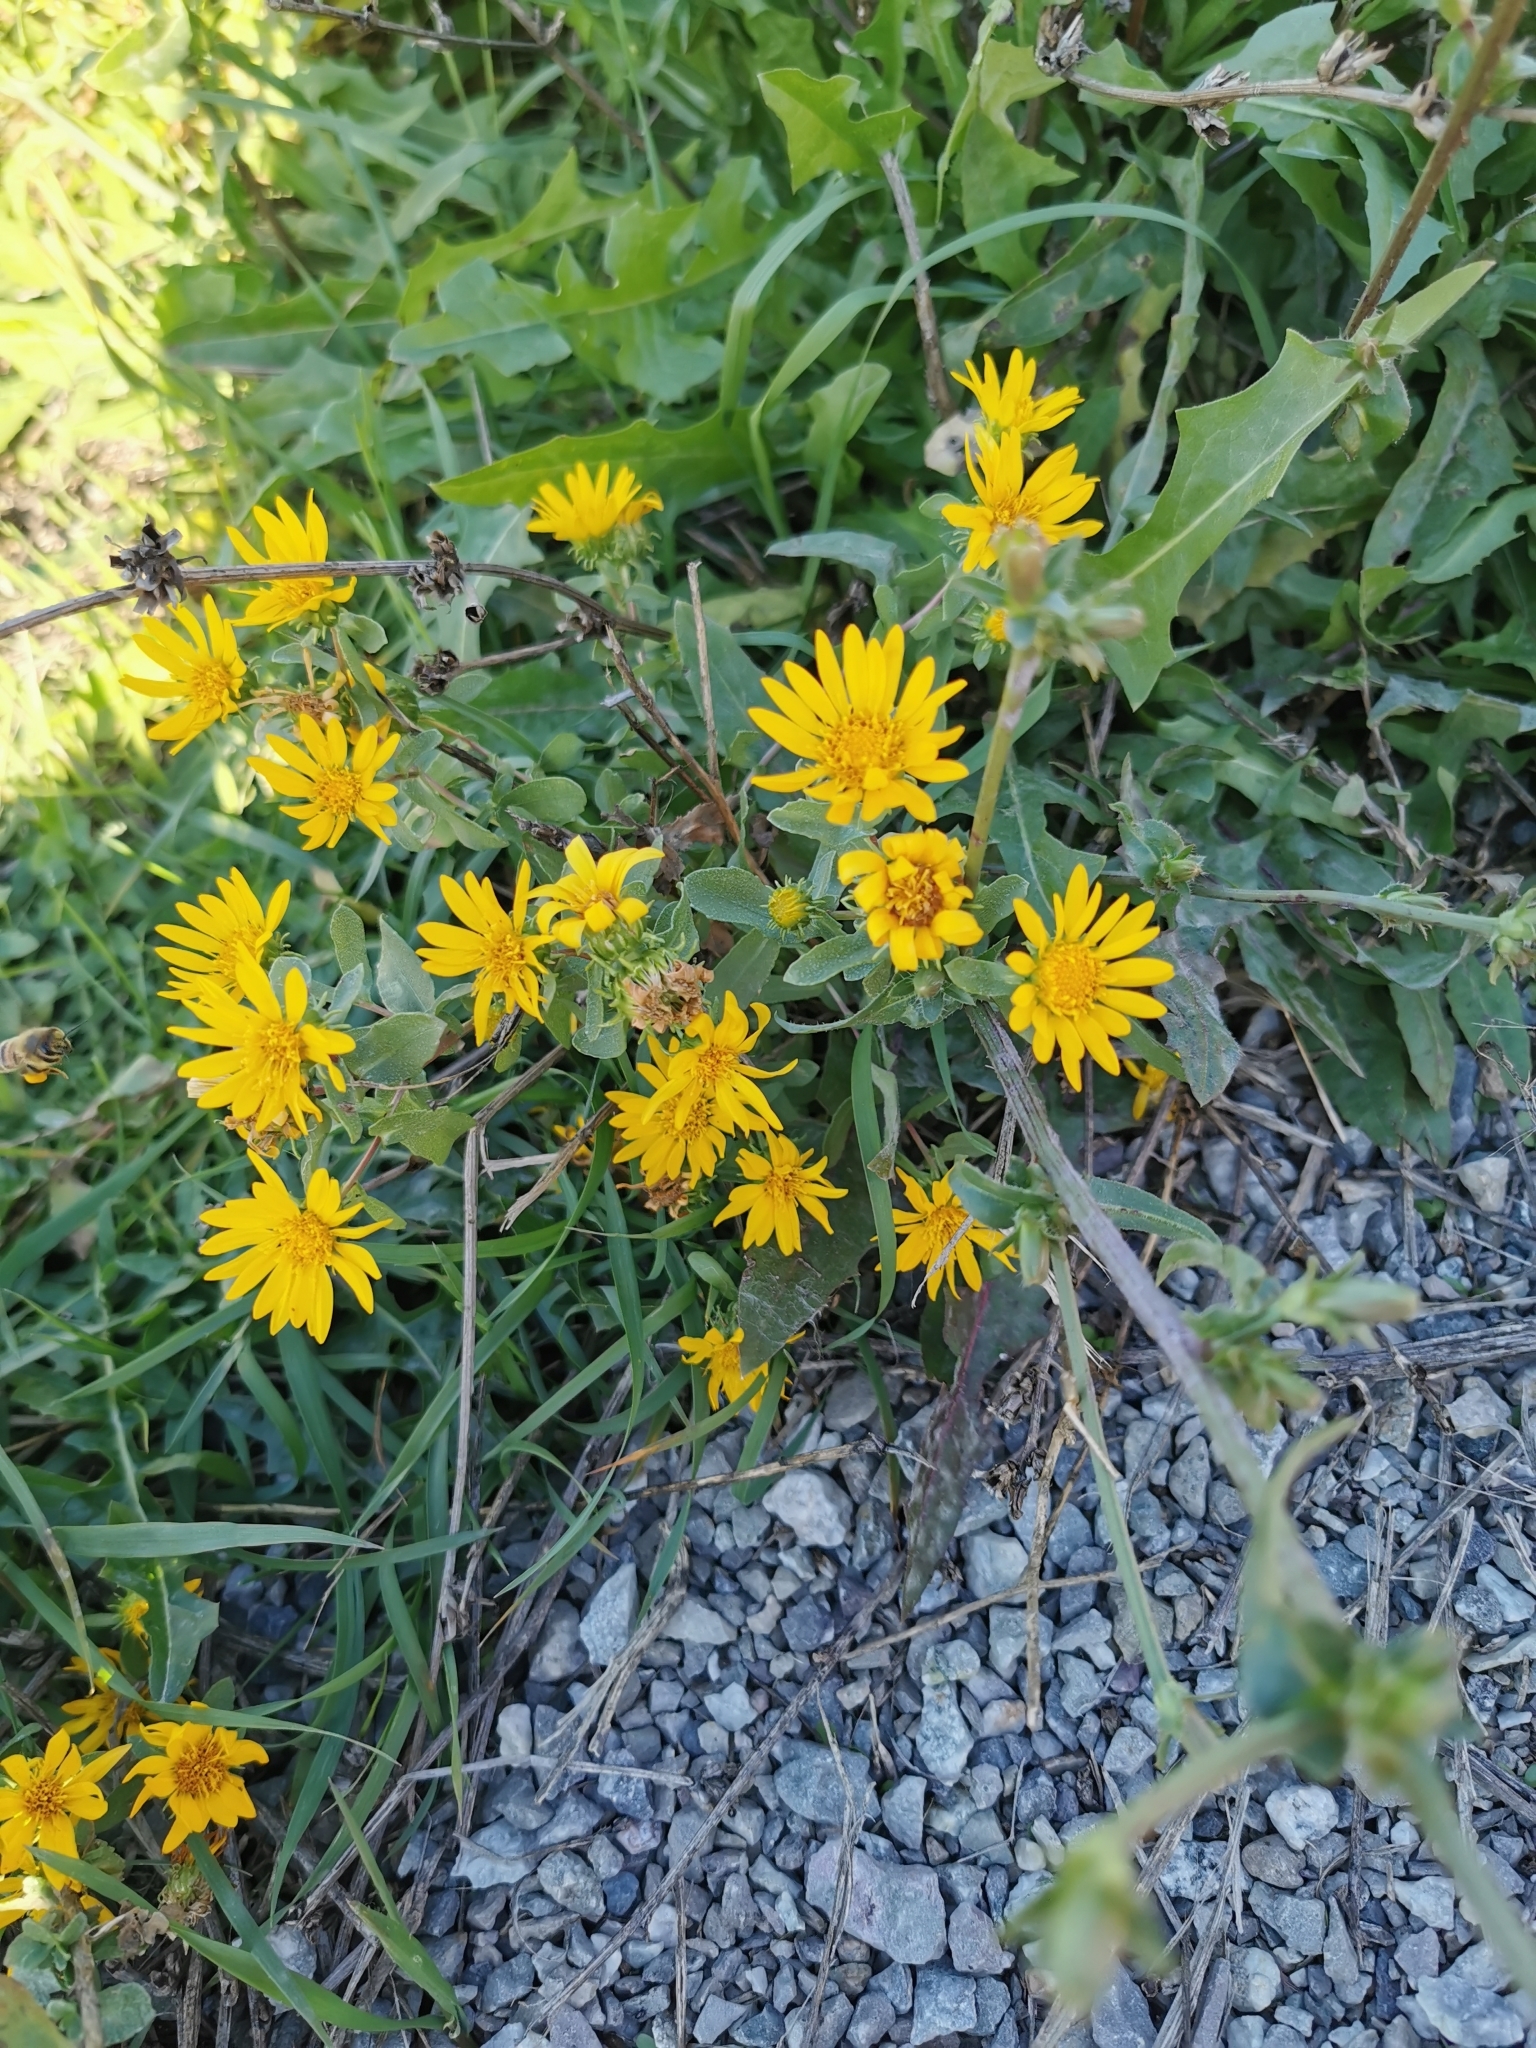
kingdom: Plantae
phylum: Tracheophyta
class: Magnoliopsida
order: Asterales
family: Asteraceae
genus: Grindelia
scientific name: Grindelia squarrosa
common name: Curly-cup gumweed
